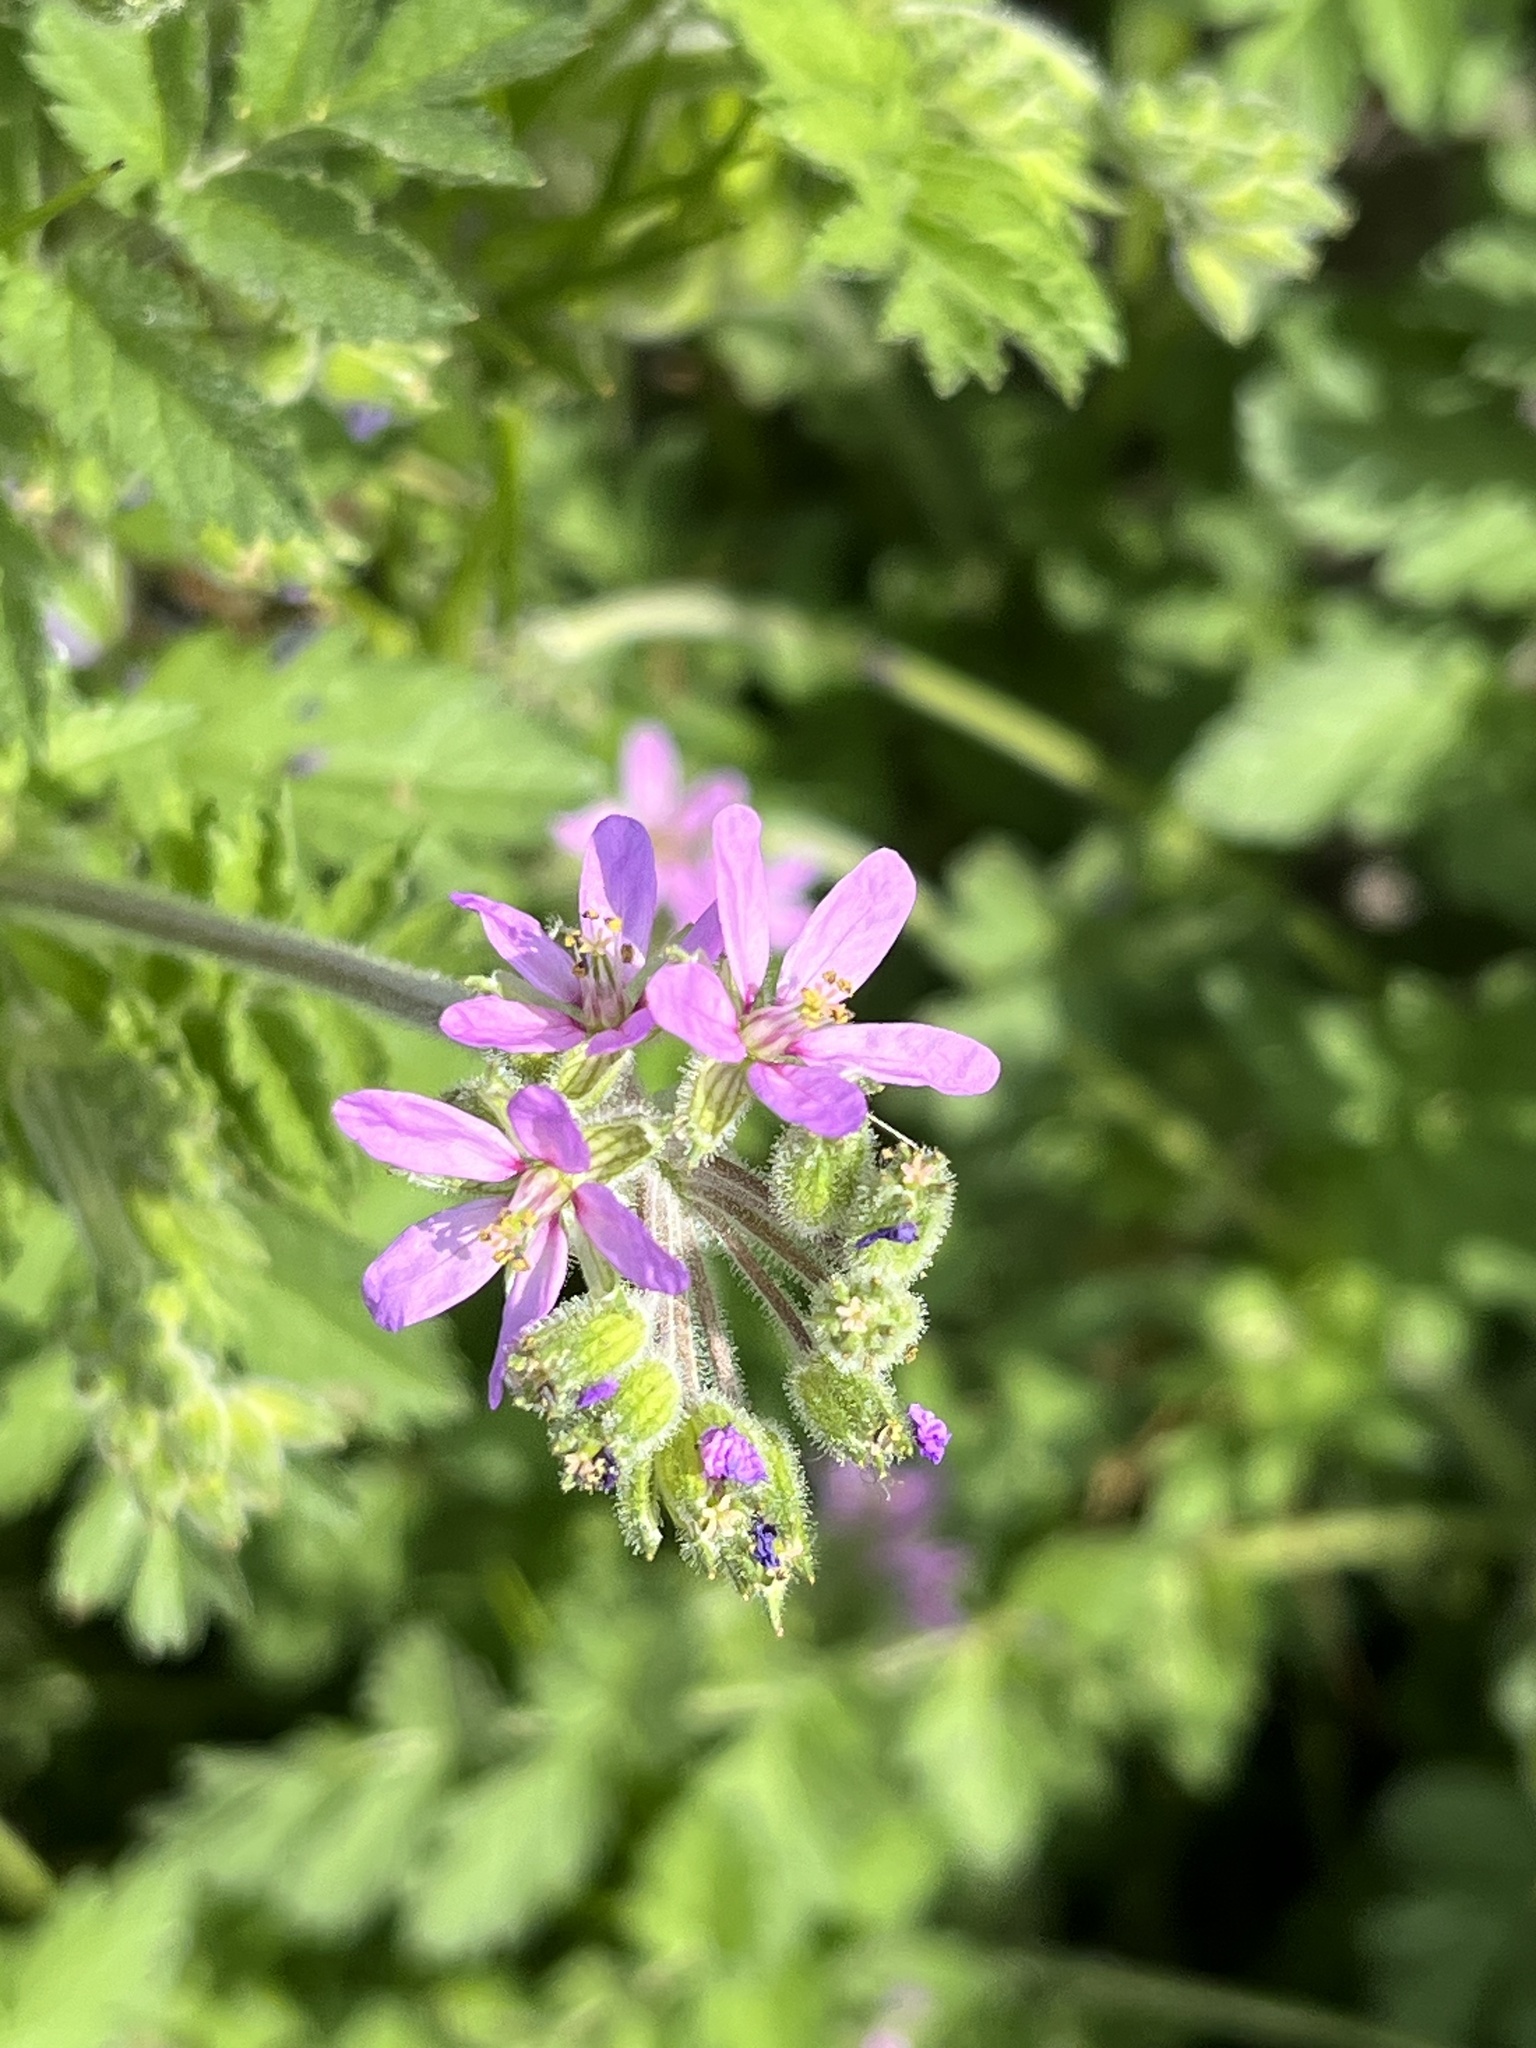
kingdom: Plantae
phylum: Tracheophyta
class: Magnoliopsida
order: Geraniales
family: Geraniaceae
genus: Erodium
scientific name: Erodium moschatum
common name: Musk stork's-bill
